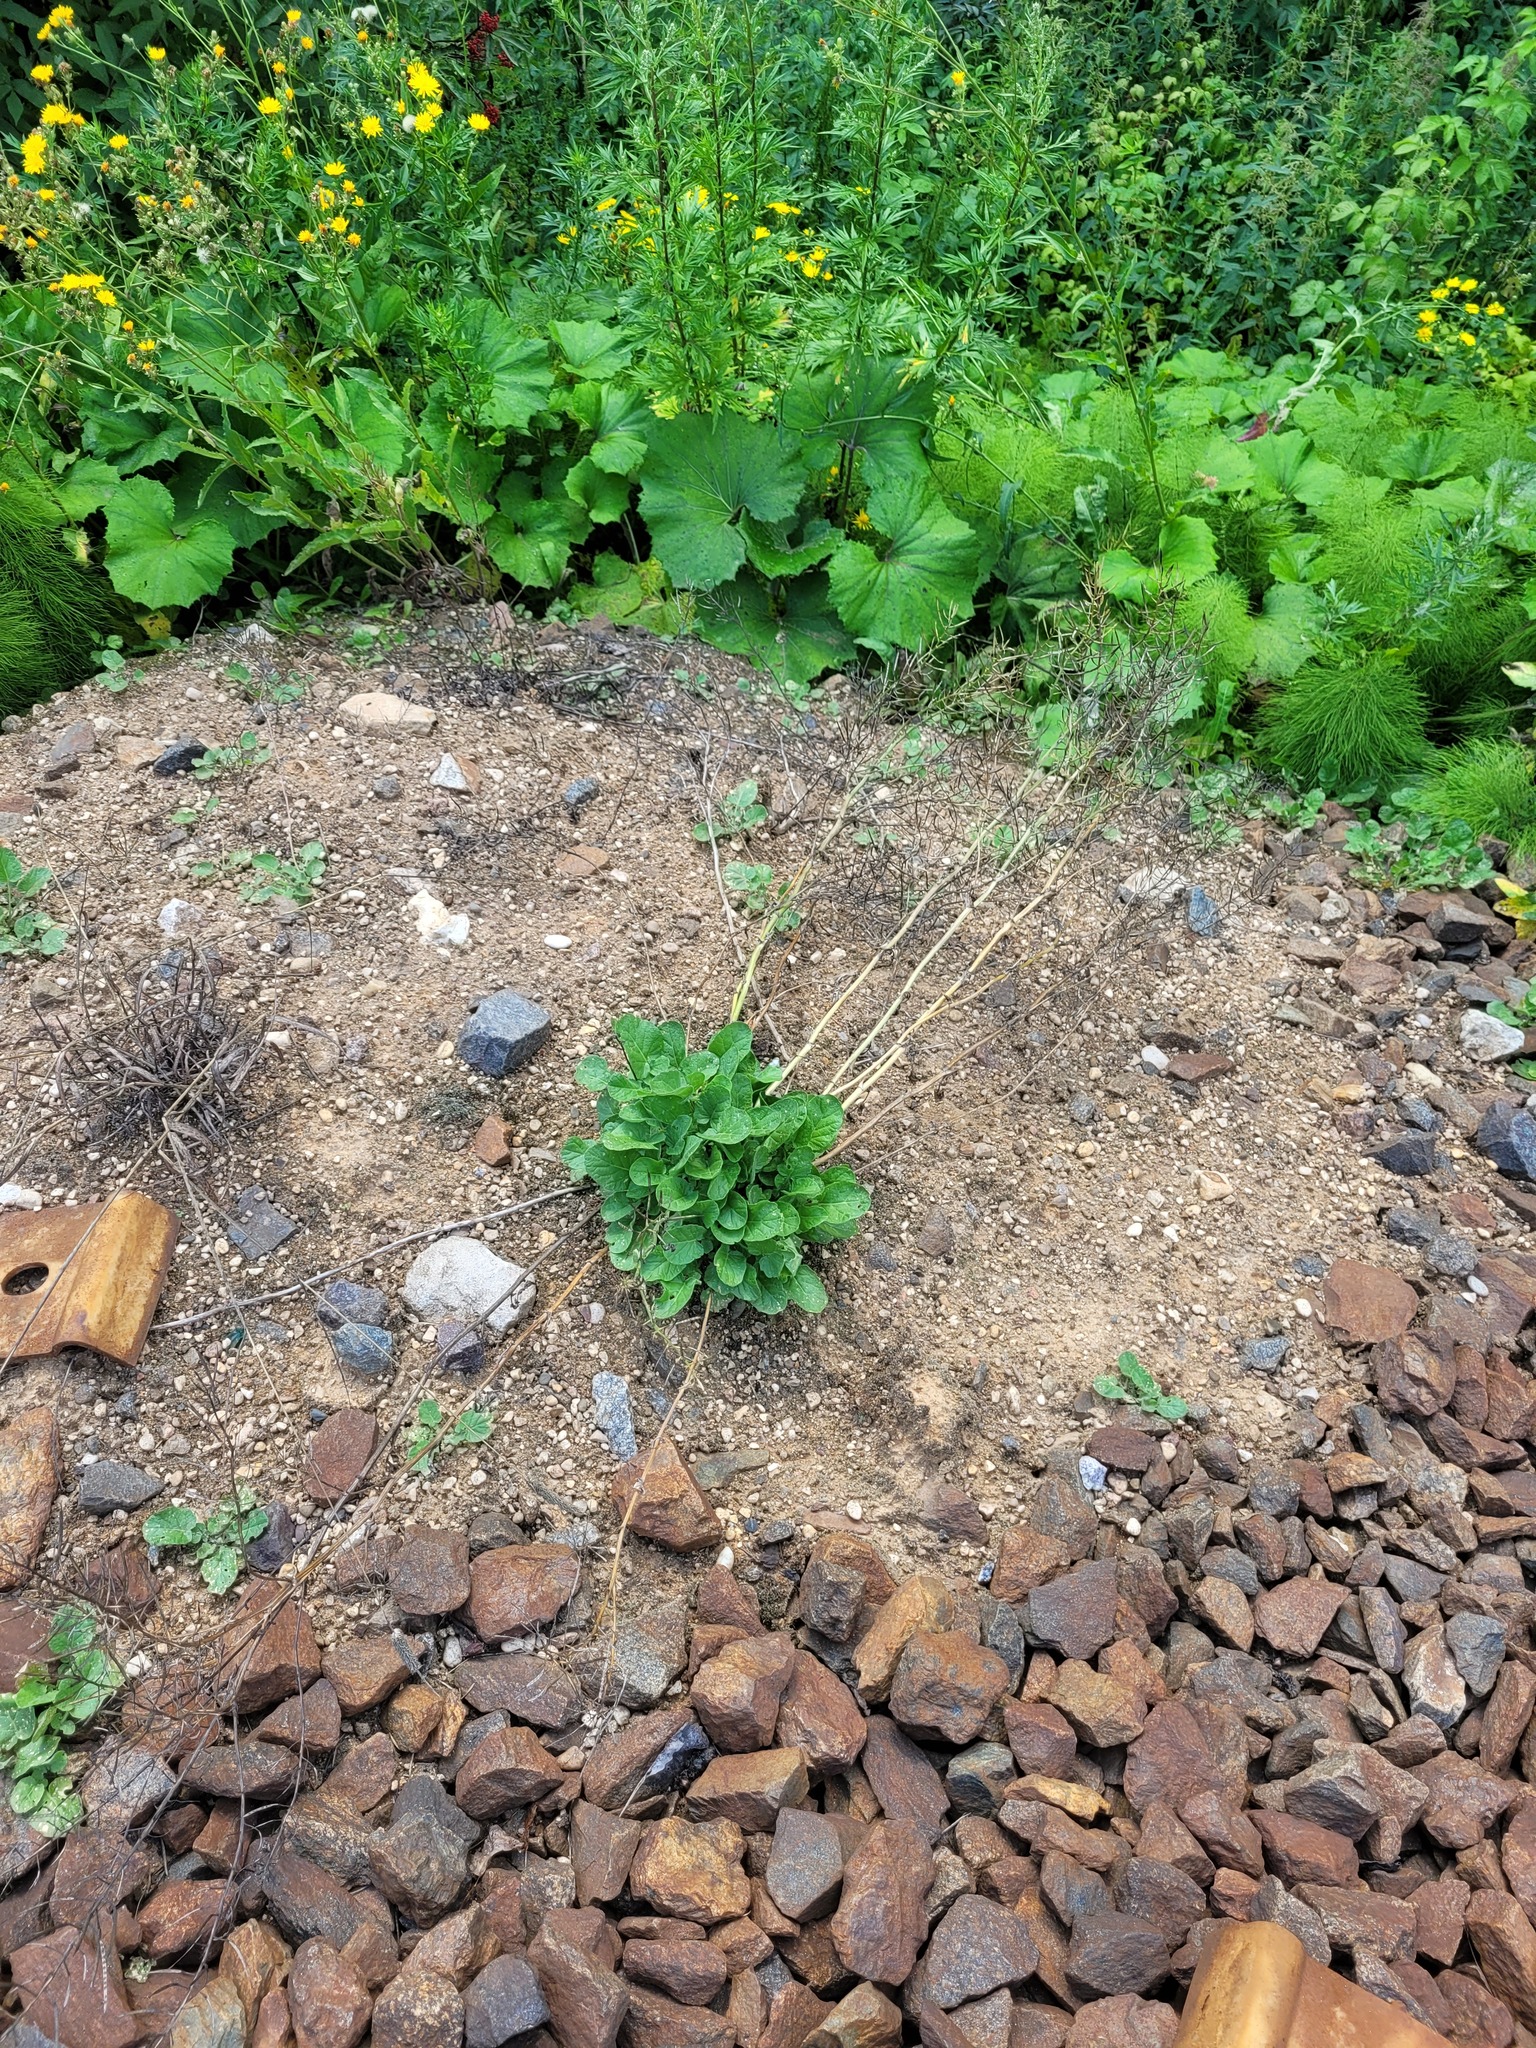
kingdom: Plantae
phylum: Tracheophyta
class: Magnoliopsida
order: Brassicales
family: Brassicaceae
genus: Barbarea
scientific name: Barbarea vulgaris
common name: Cressy-greens
